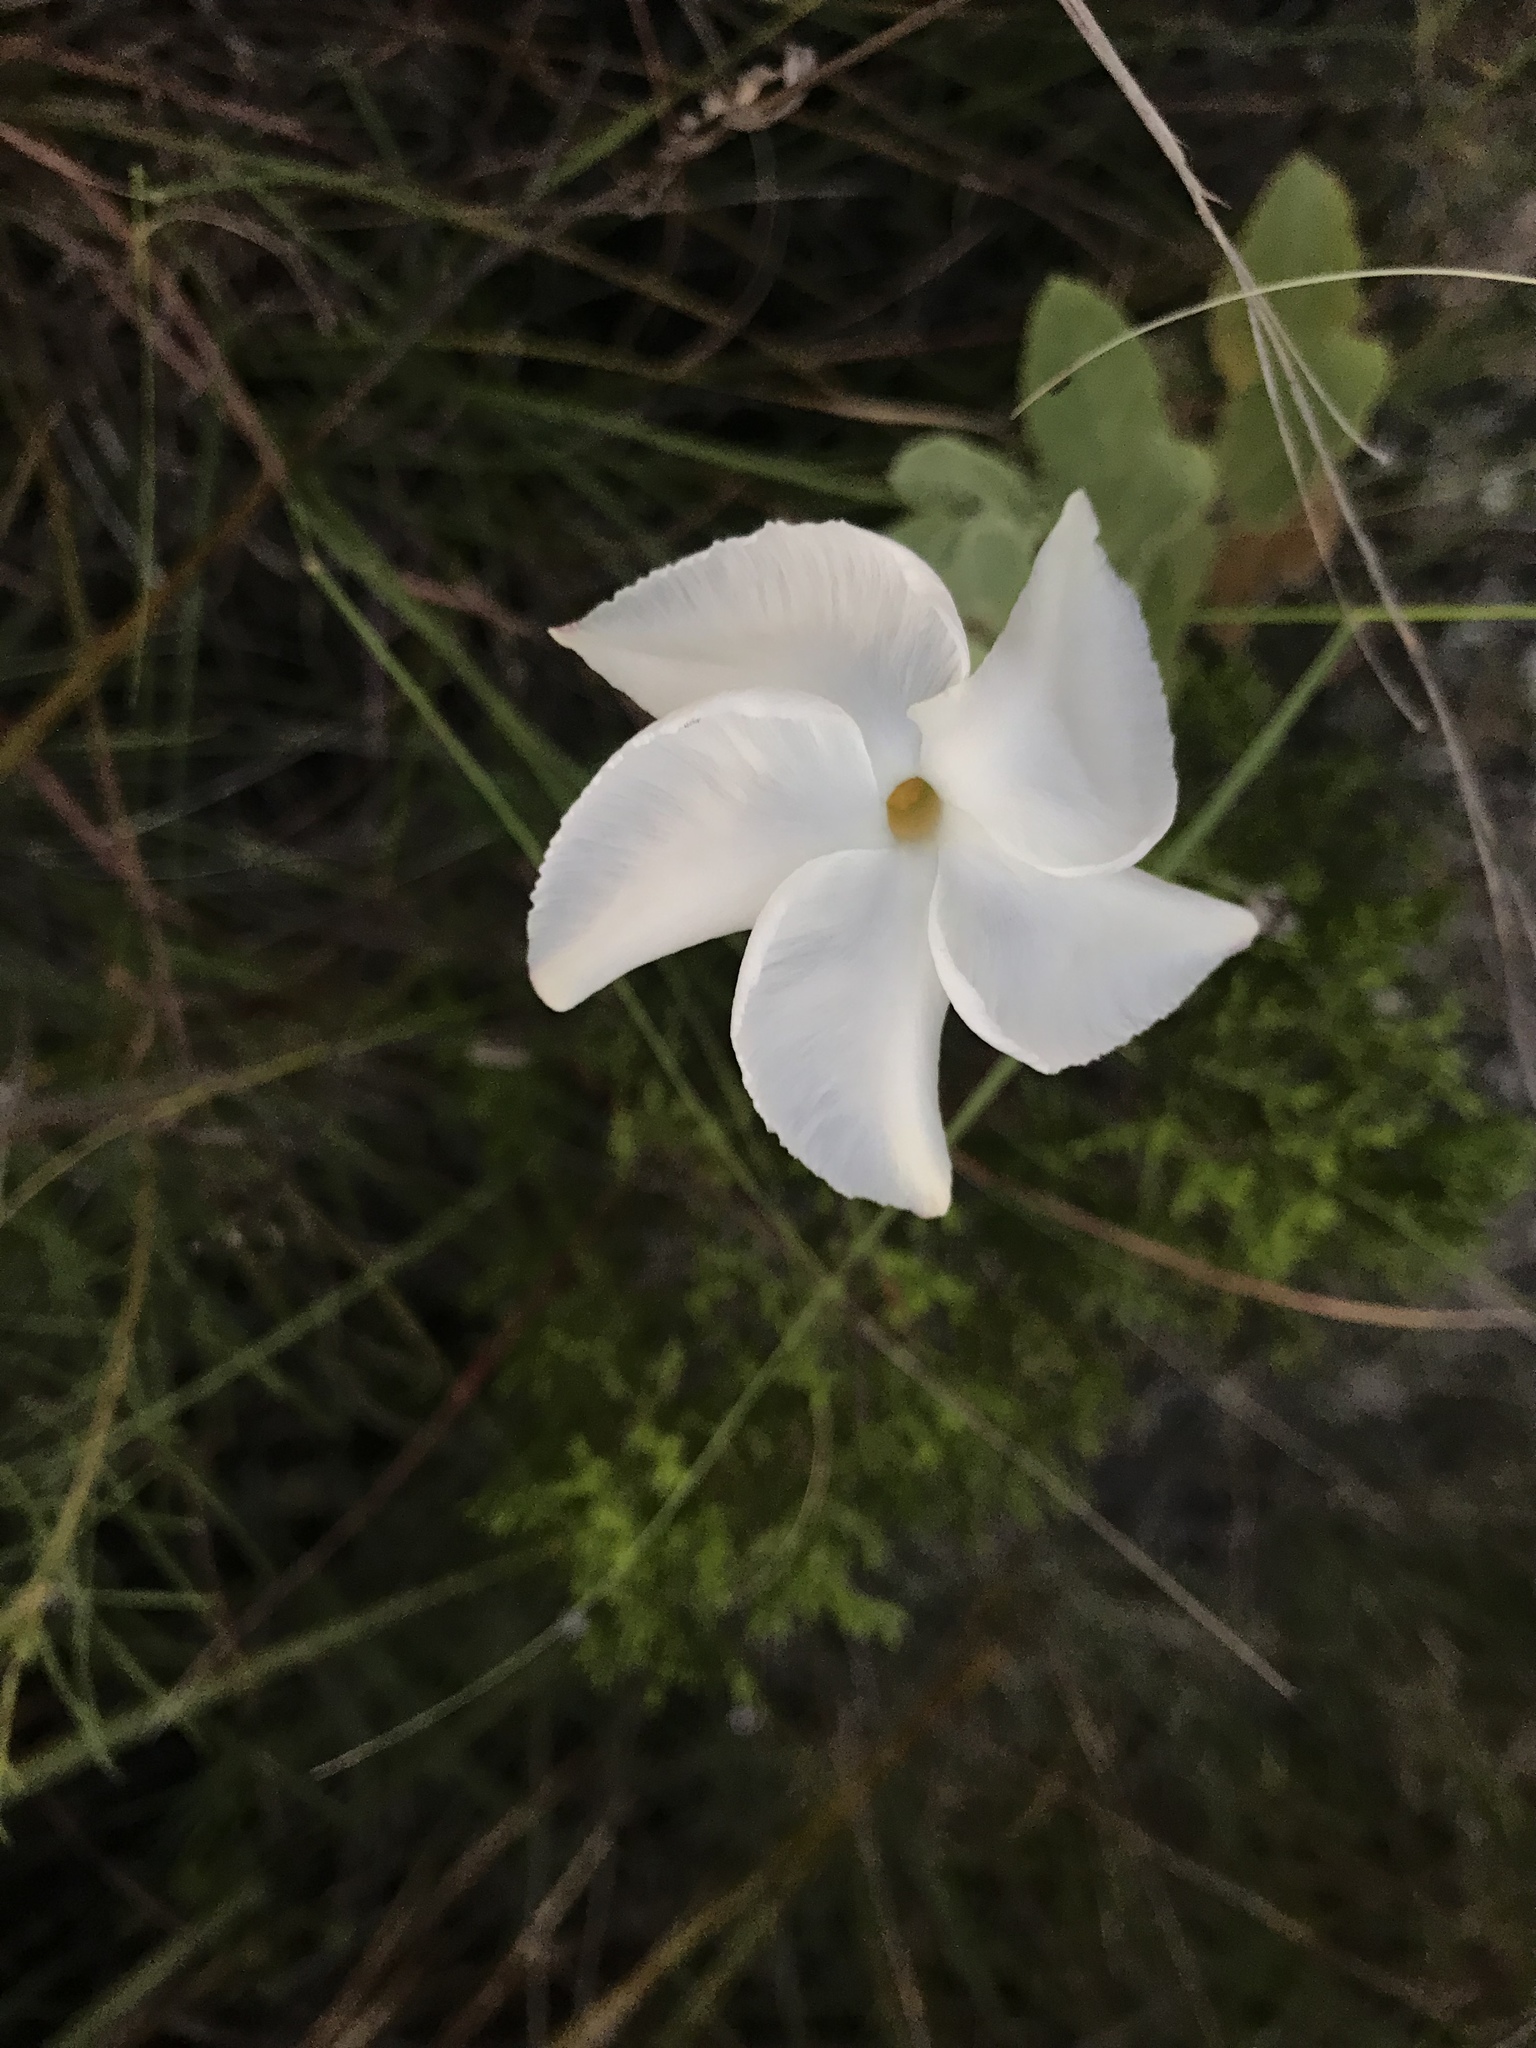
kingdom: Plantae
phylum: Tracheophyta
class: Magnoliopsida
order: Gentianales
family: Apocynaceae
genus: Mandevilla
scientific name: Mandevilla macrosiphon
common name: Plateau rocktrumpet
